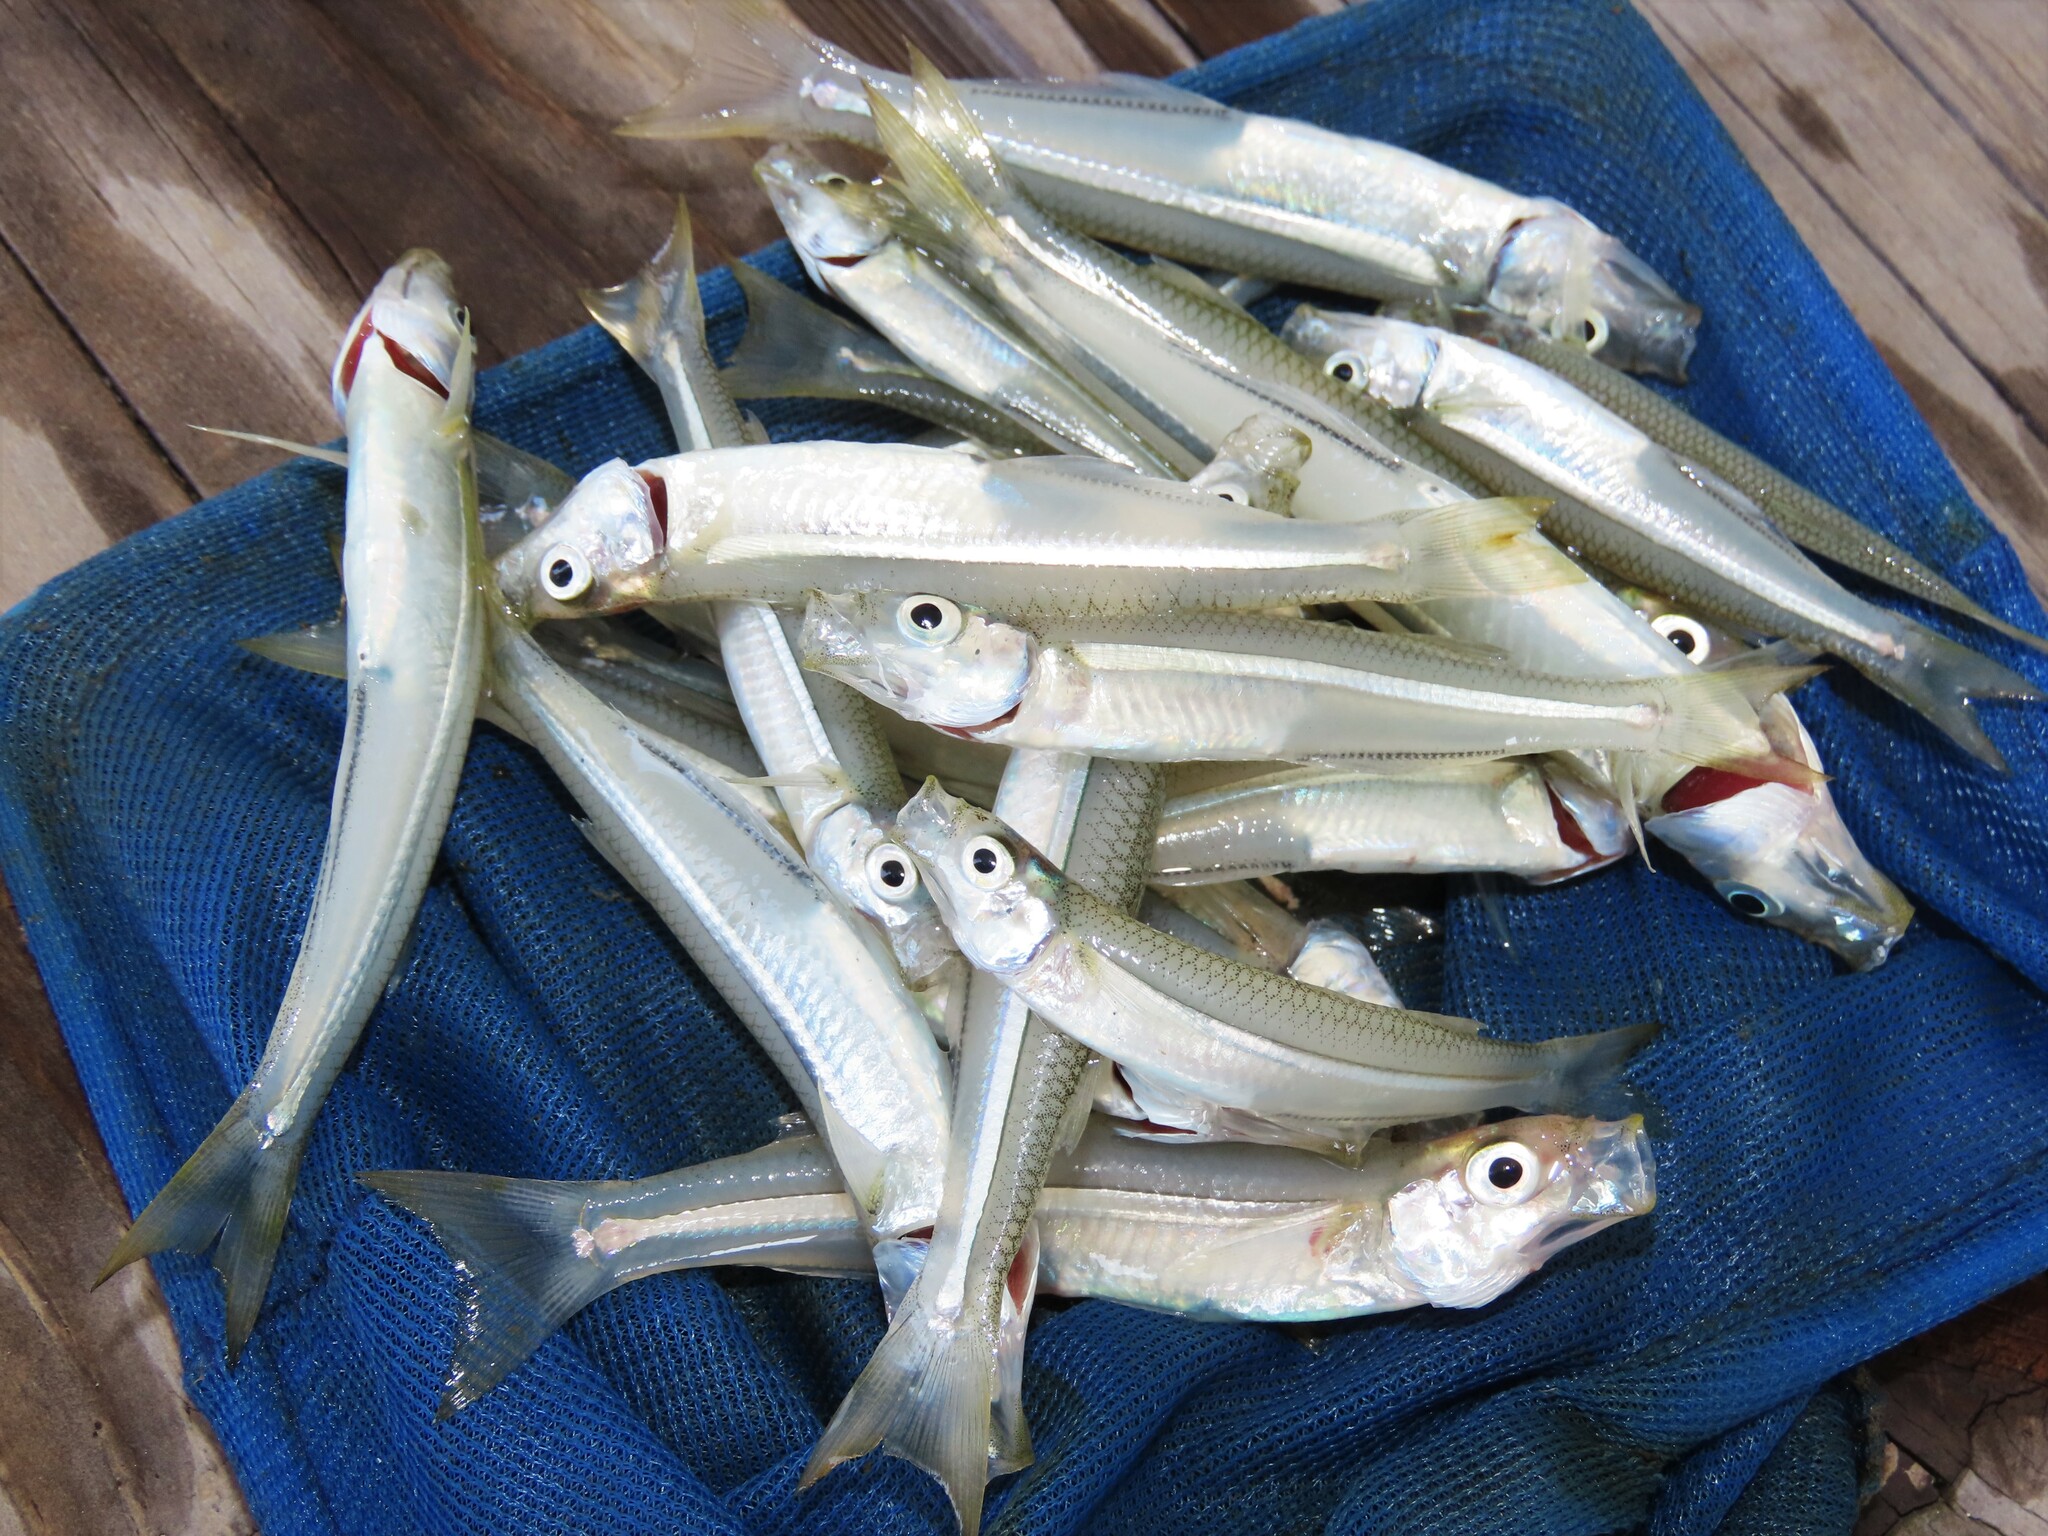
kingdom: Animalia
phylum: Chordata
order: Atheriniformes
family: Atherinopsidae
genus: Menidia
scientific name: Menidia menidia
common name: Atlantic silverside
